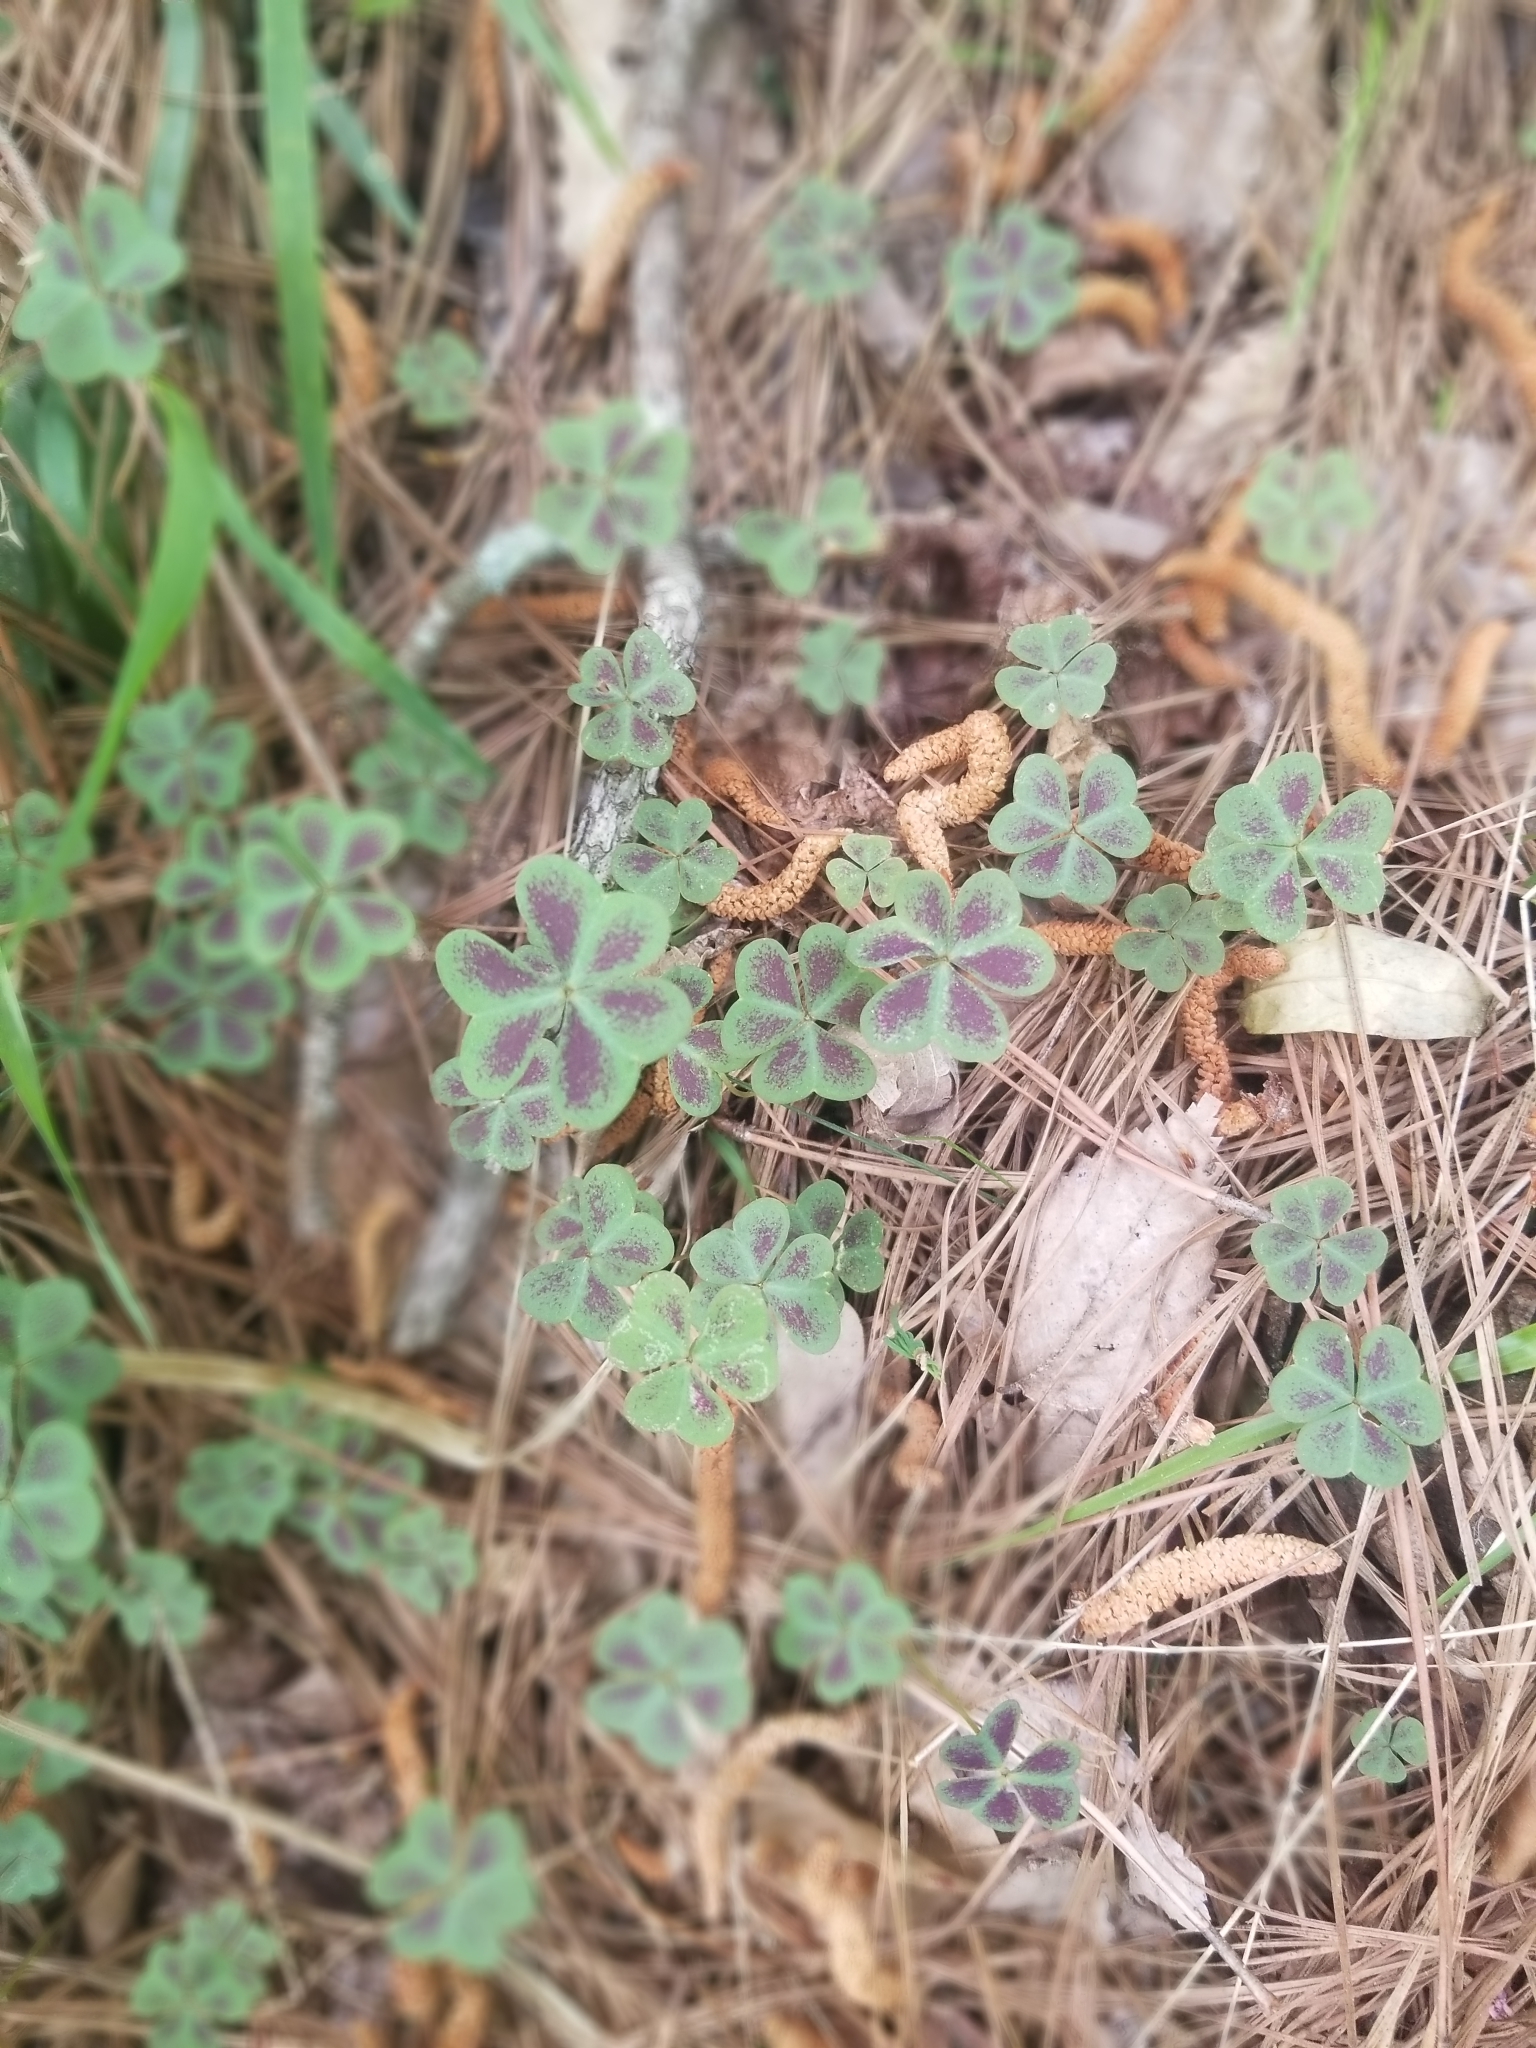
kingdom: Plantae
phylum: Tracheophyta
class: Magnoliopsida
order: Oxalidales
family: Oxalidaceae
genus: Oxalis
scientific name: Oxalis violacea
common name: Violet wood-sorrel
